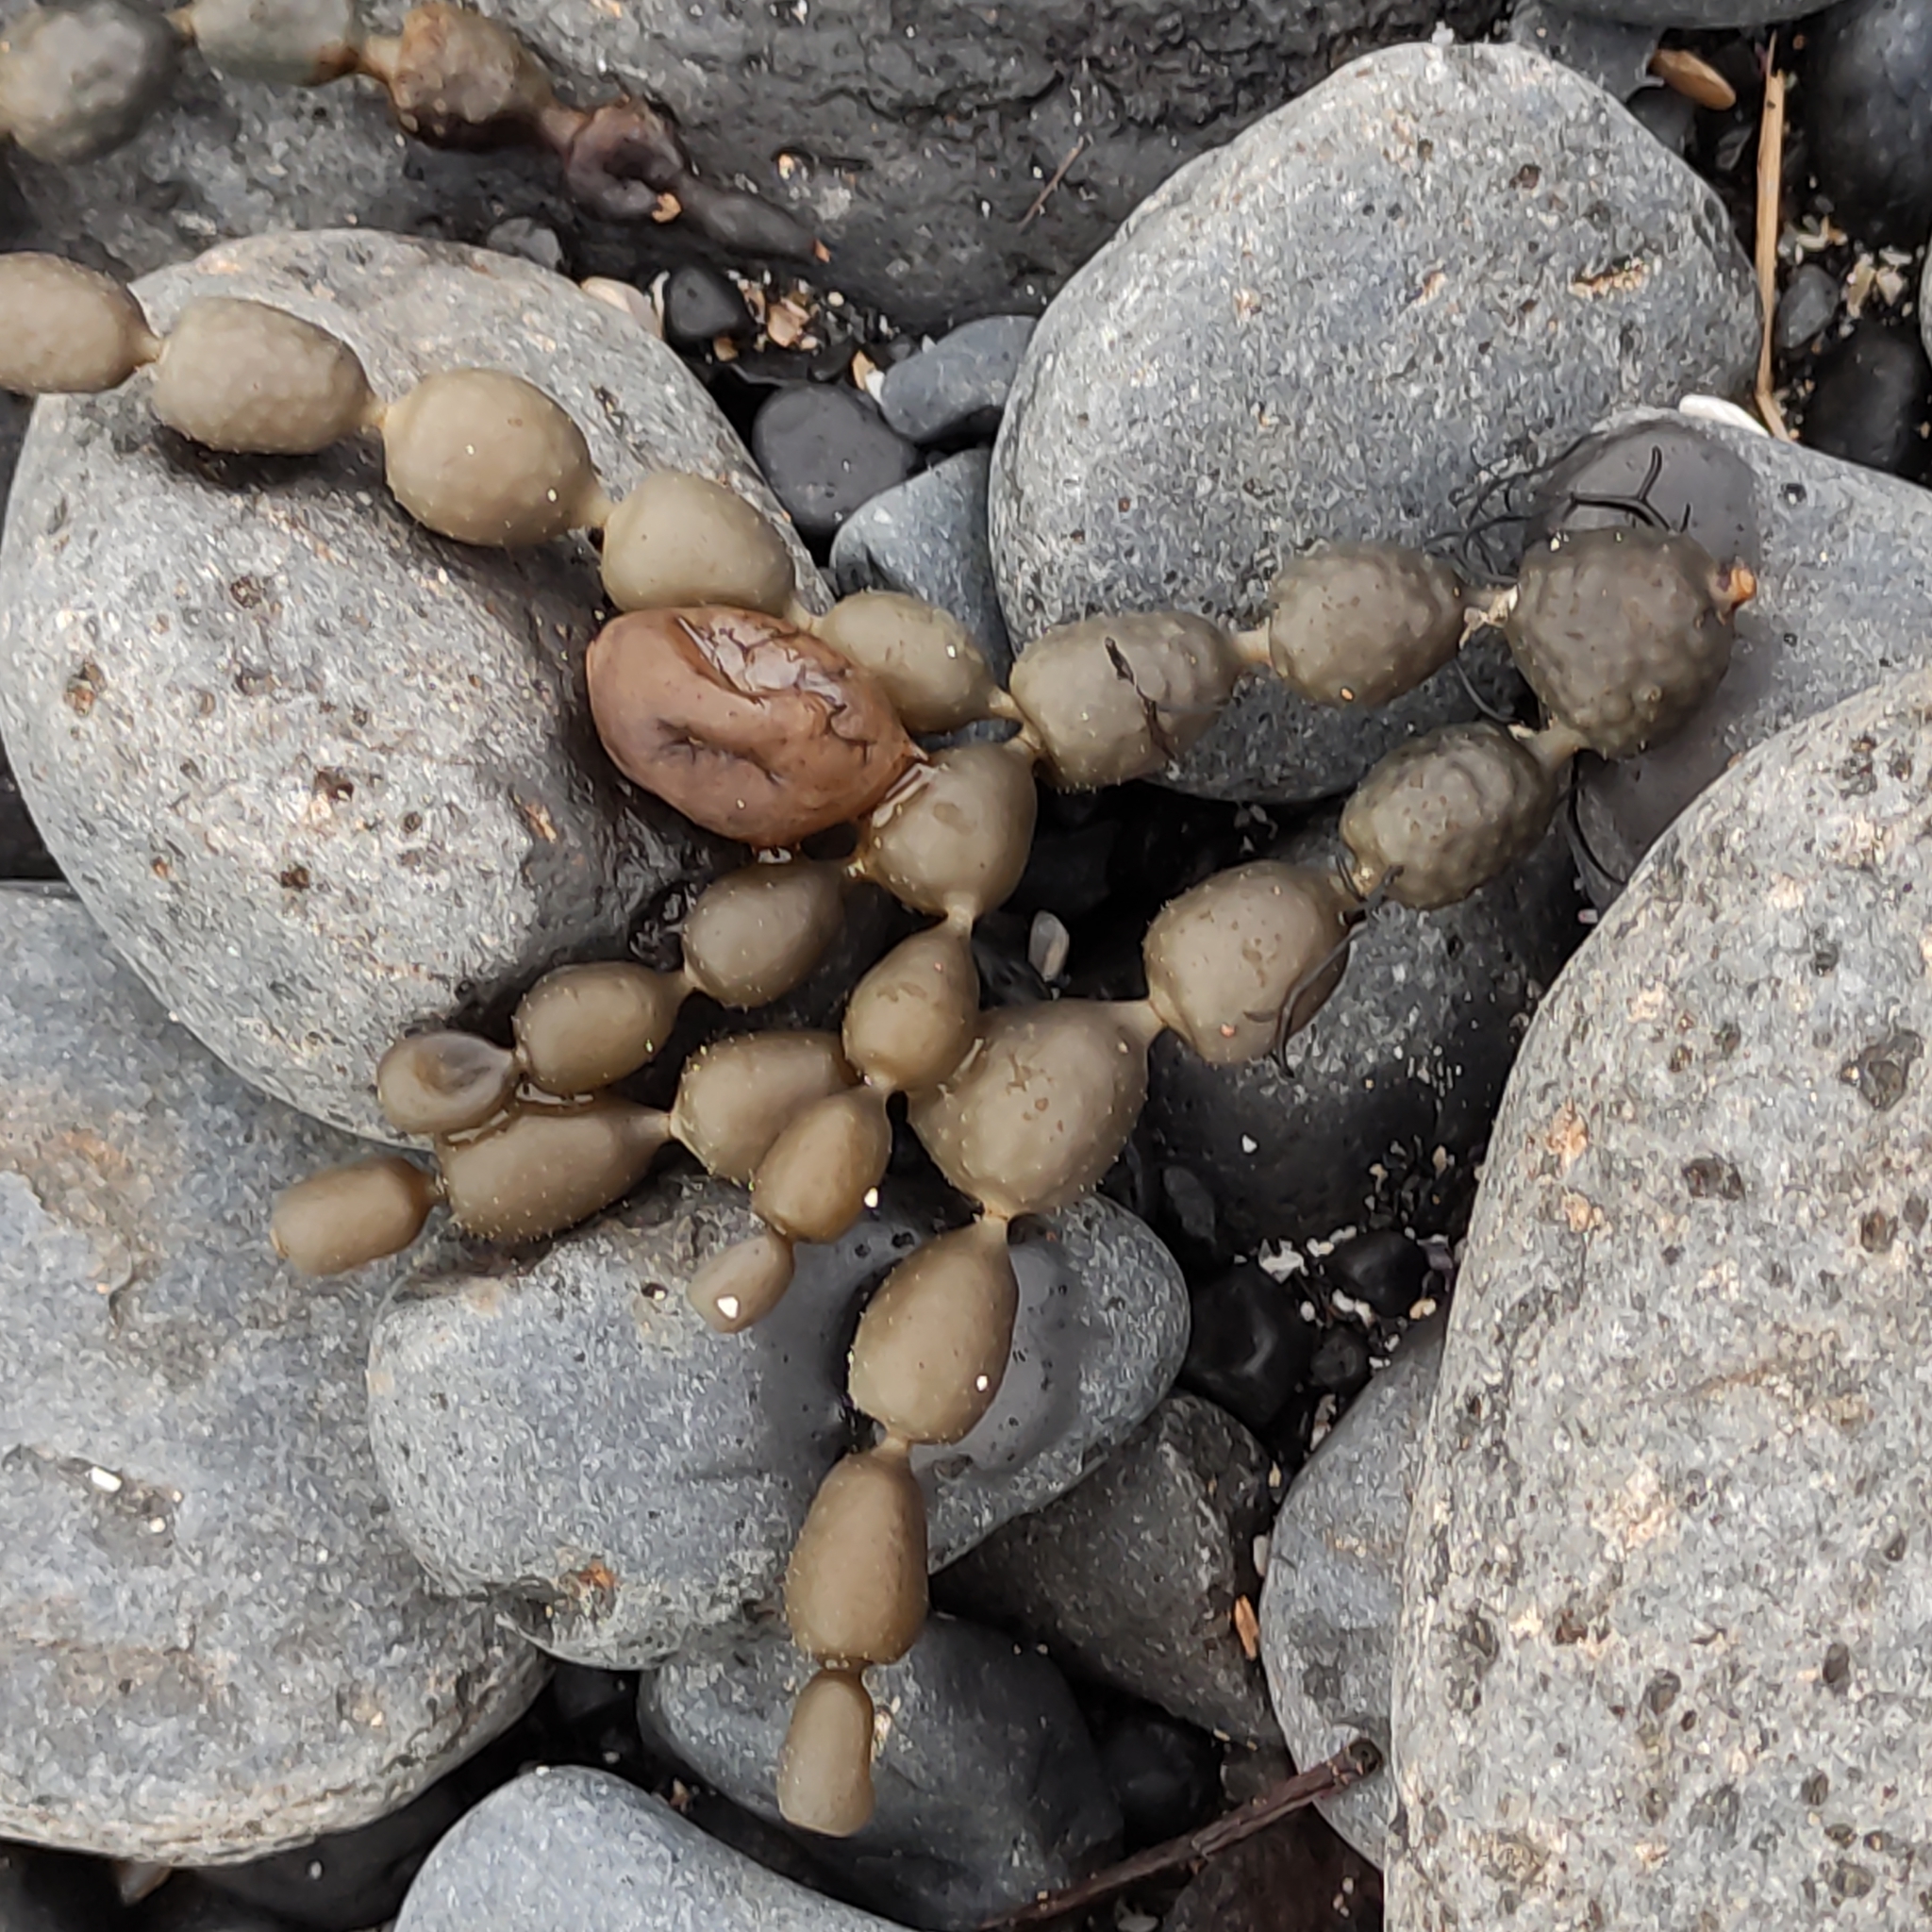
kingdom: Chromista
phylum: Ochrophyta
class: Phaeophyceae
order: Fucales
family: Hormosiraceae
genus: Hormosira
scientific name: Hormosira banksii
